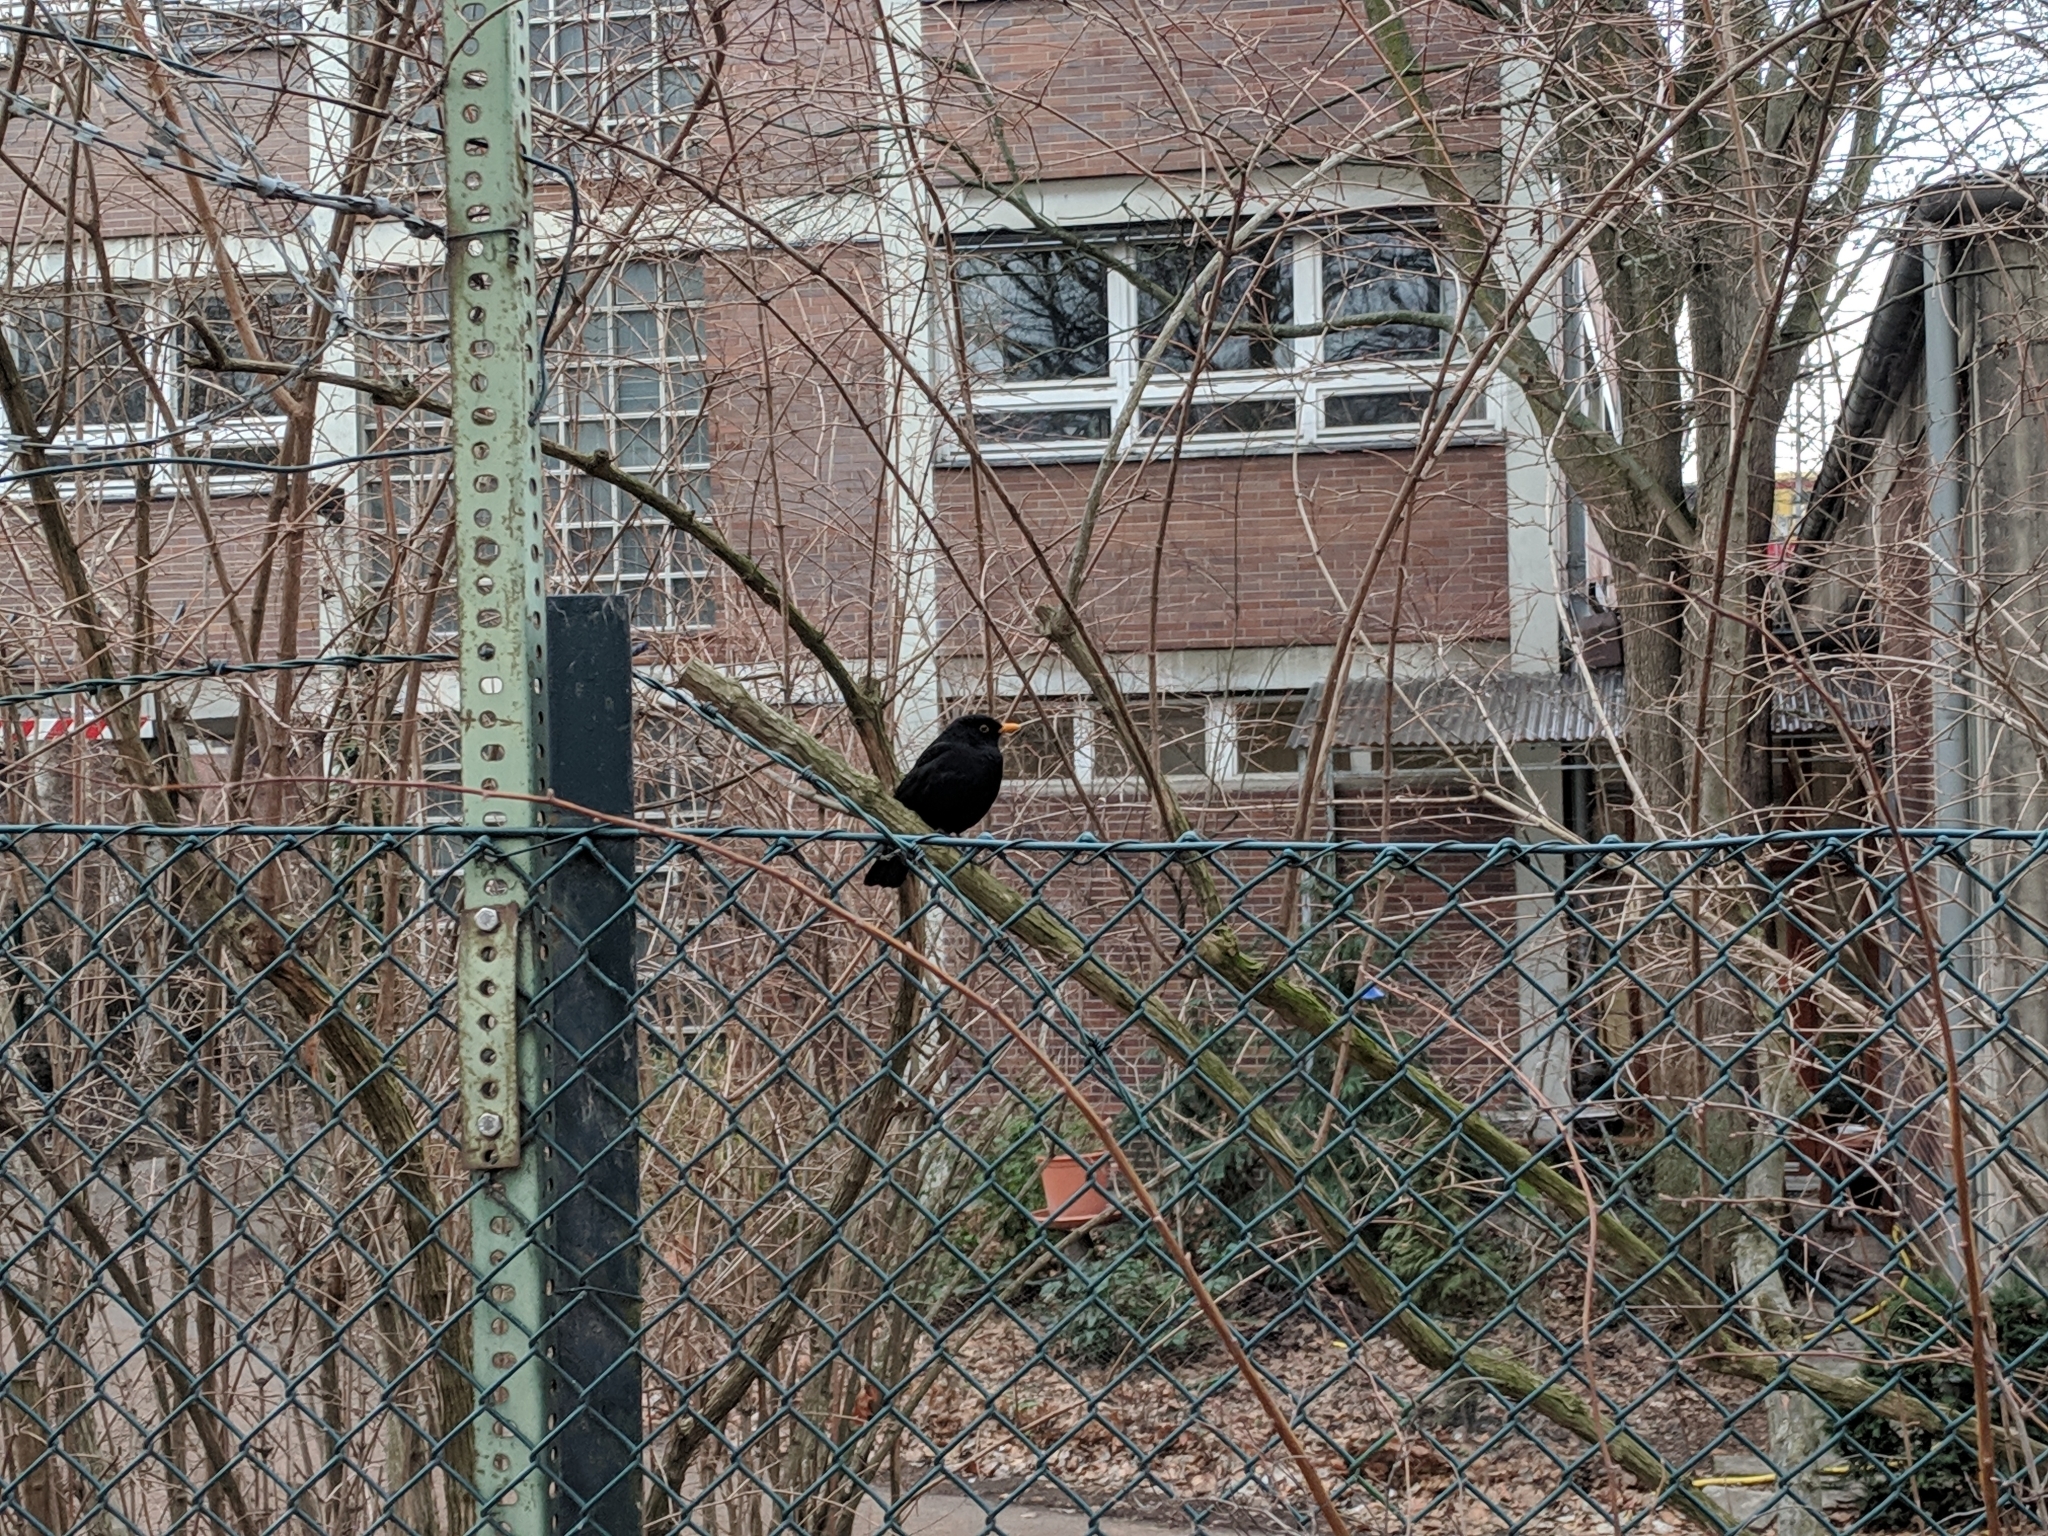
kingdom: Animalia
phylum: Chordata
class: Aves
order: Passeriformes
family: Turdidae
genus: Turdus
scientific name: Turdus merula
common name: Common blackbird
